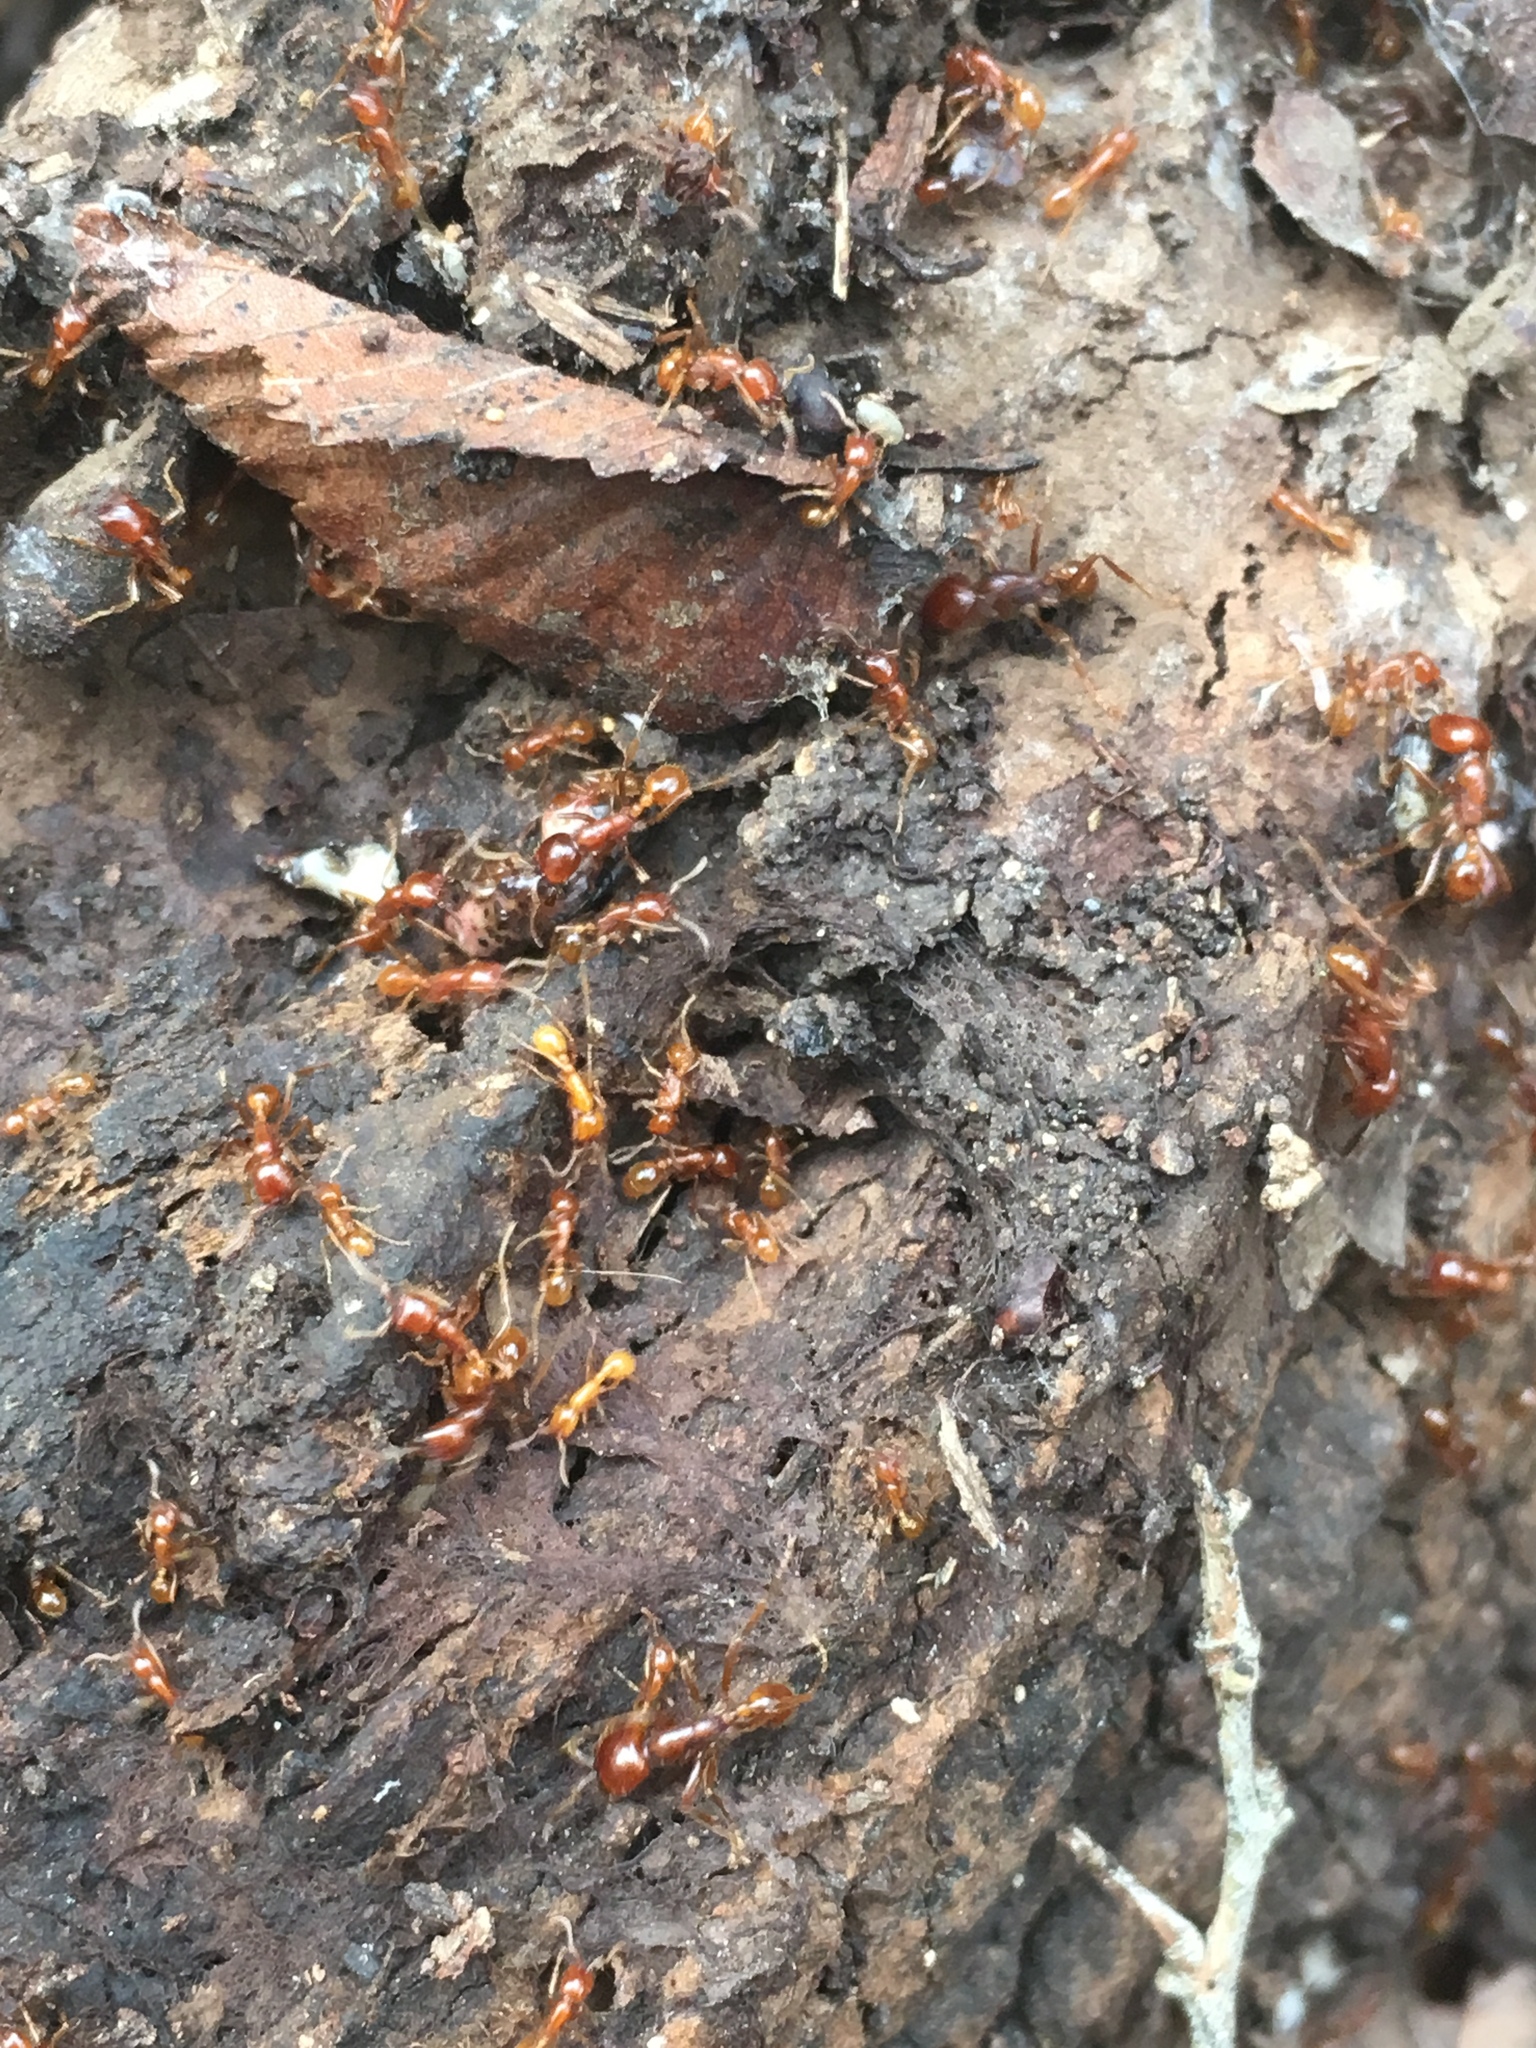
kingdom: Animalia
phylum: Arthropoda
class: Insecta
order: Hymenoptera
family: Formicidae
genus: Labidus
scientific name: Labidus coecus
